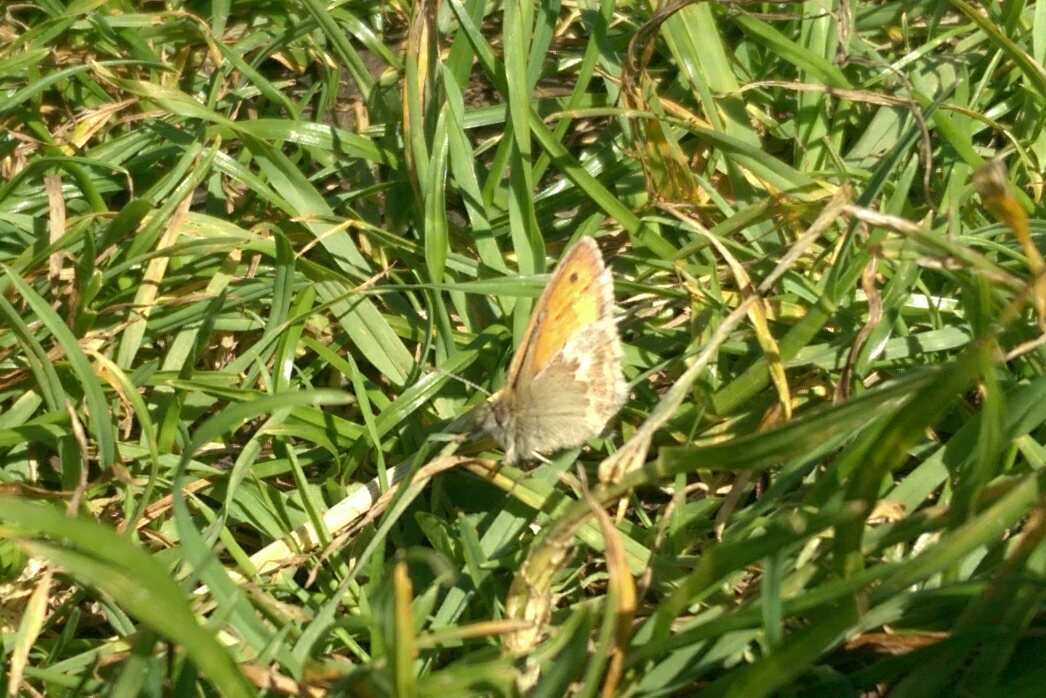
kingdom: Animalia
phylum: Arthropoda
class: Insecta
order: Lepidoptera
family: Nymphalidae
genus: Coenonympha
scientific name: Coenonympha pamphilus
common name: Small heath
